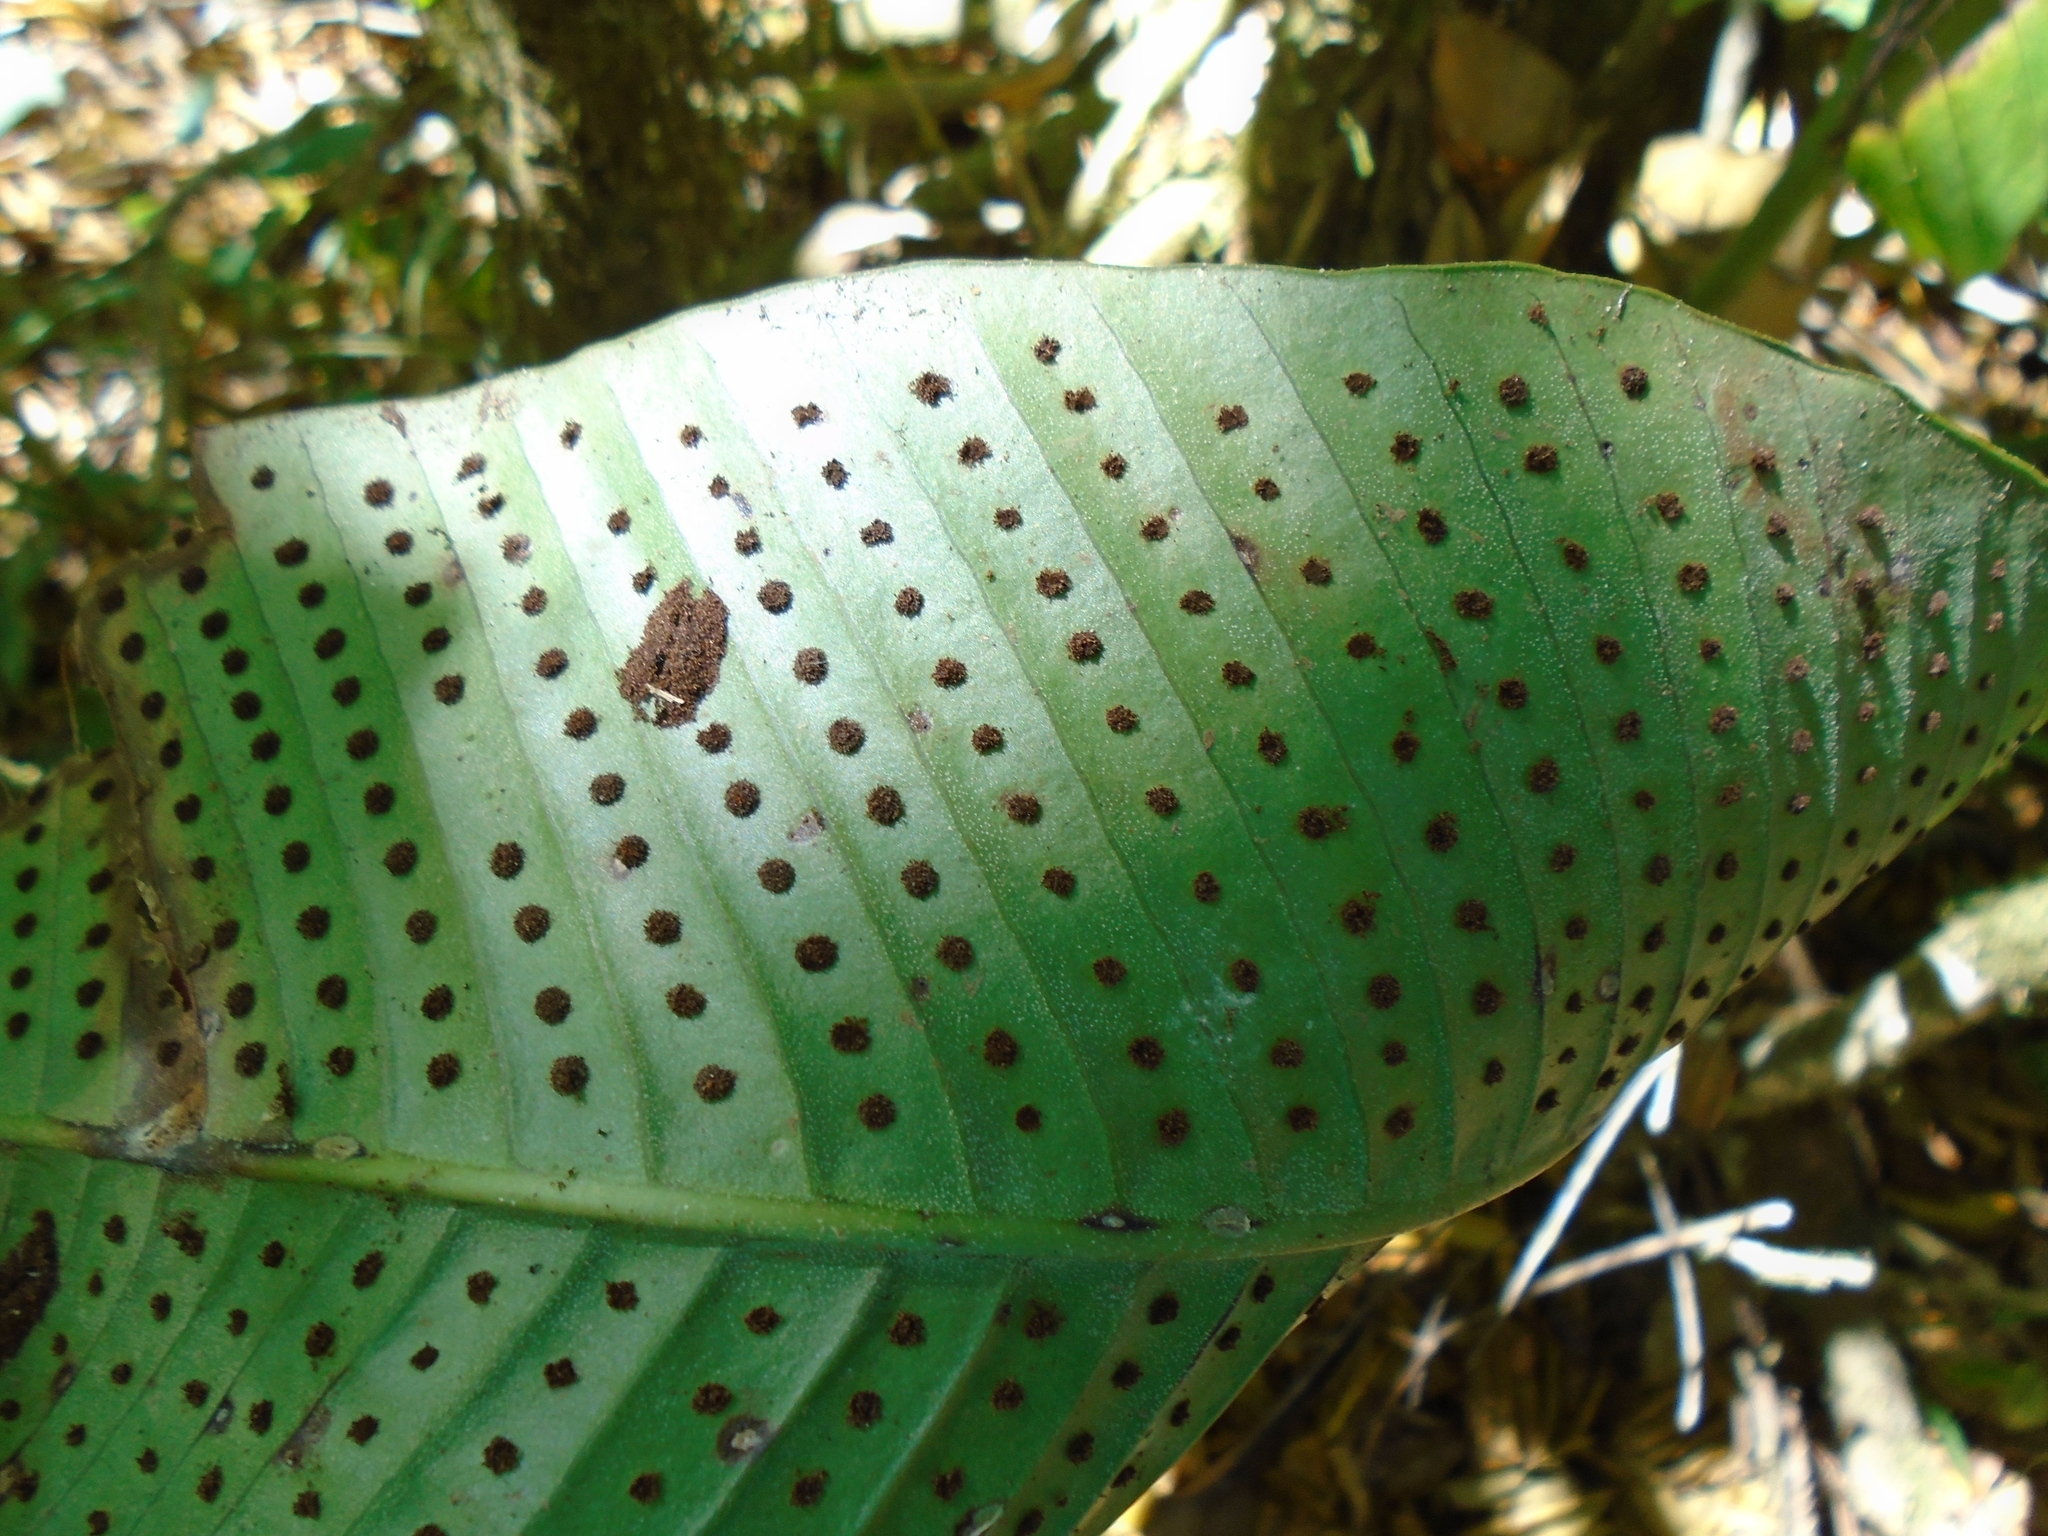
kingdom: Plantae
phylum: Tracheophyta
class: Polypodiopsida
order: Polypodiales
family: Polypodiaceae
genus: Niphidium
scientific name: Niphidium crassifolium
